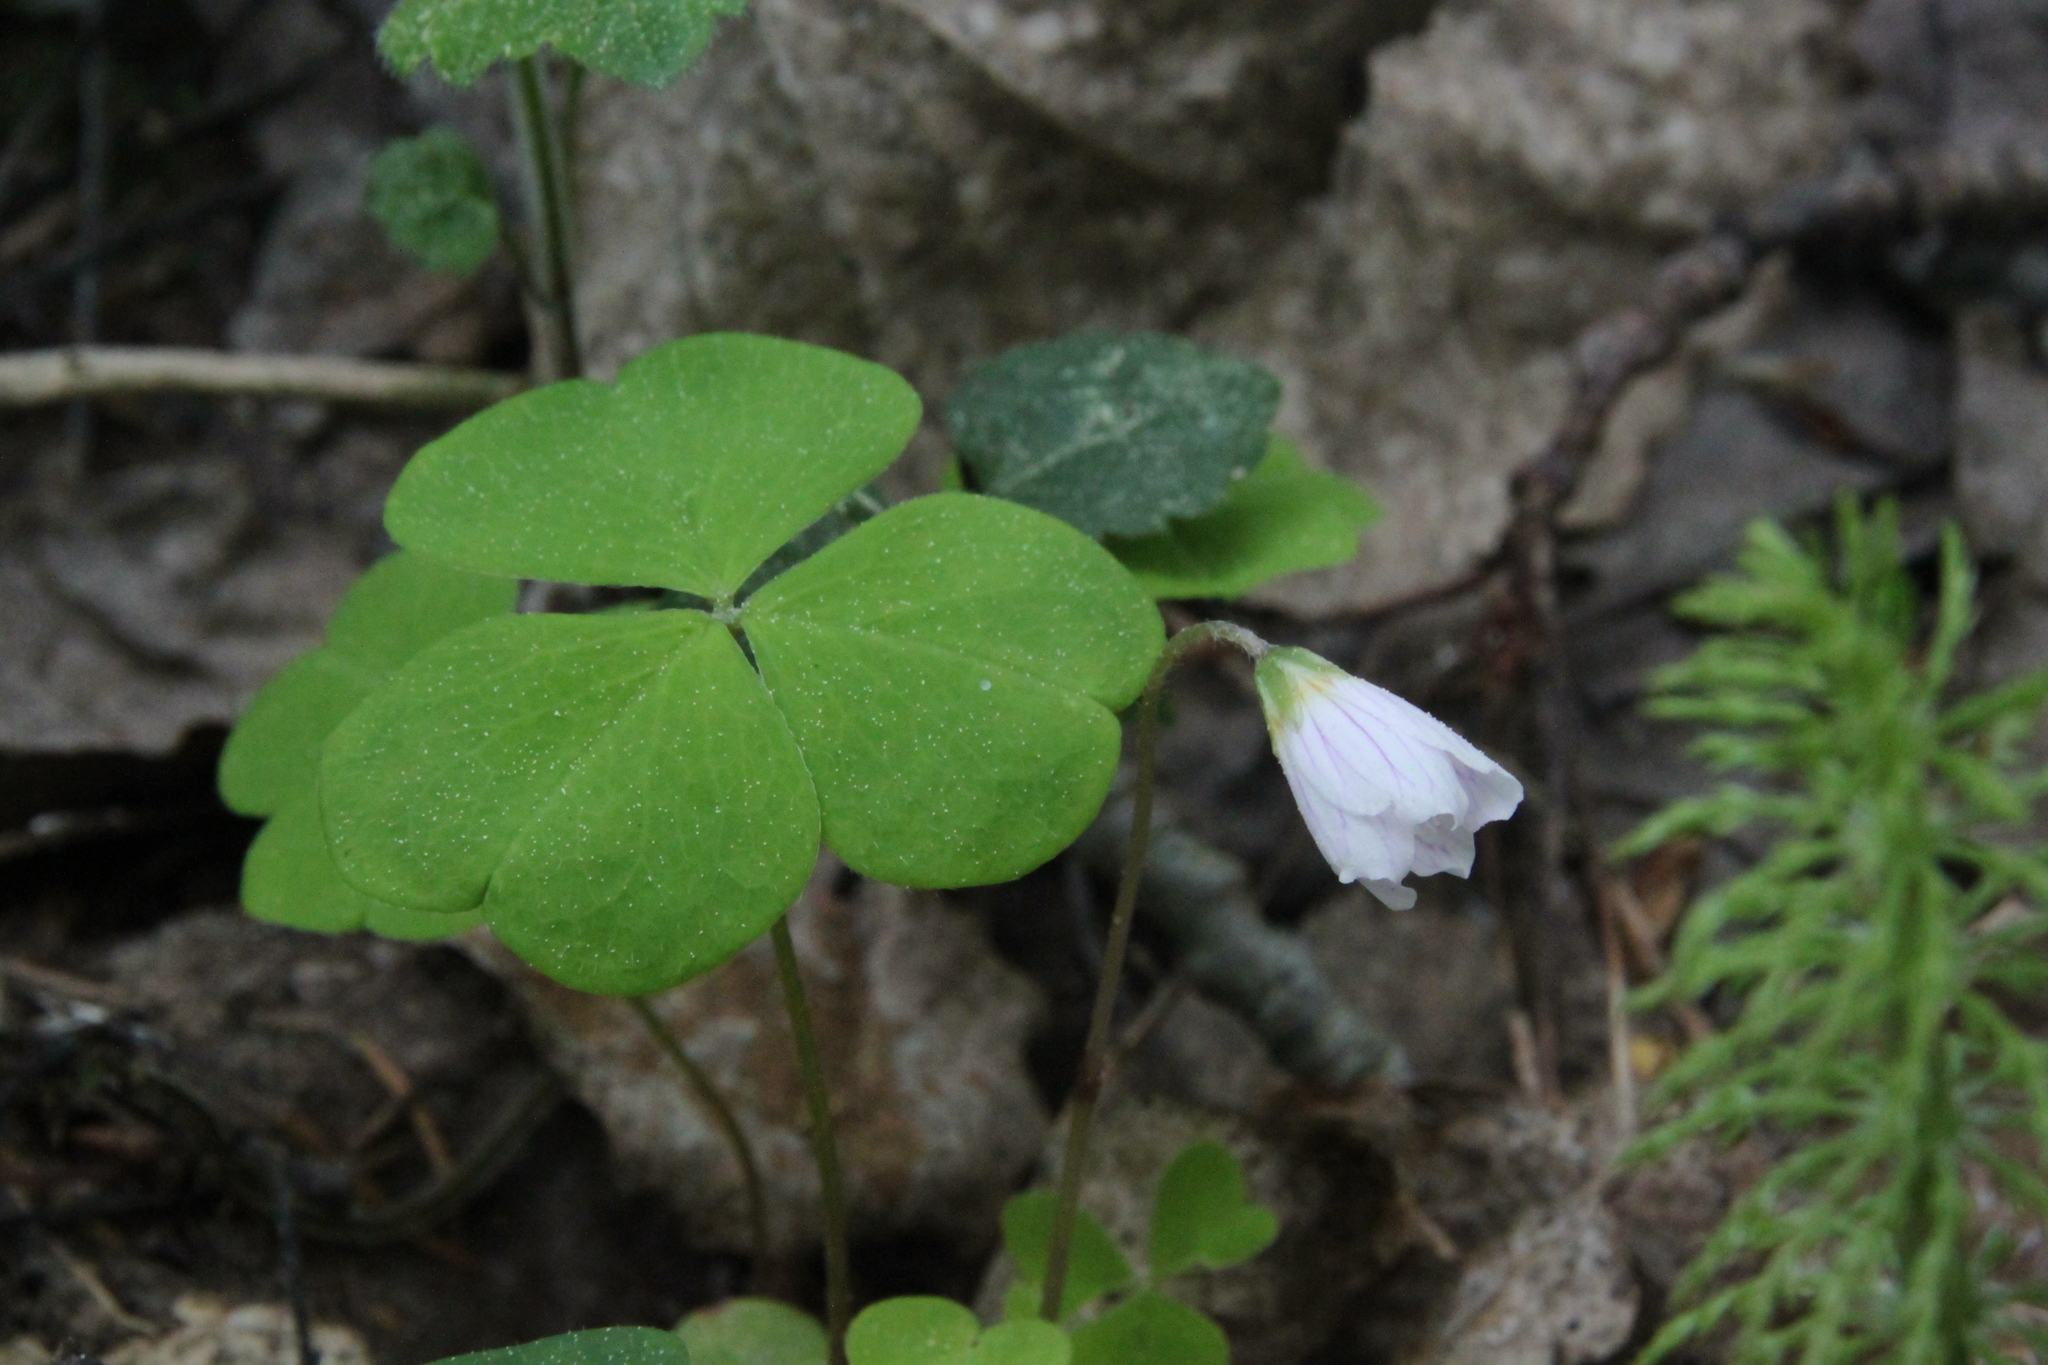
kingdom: Plantae
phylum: Tracheophyta
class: Magnoliopsida
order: Oxalidales
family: Oxalidaceae
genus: Oxalis
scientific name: Oxalis acetosella
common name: Wood-sorrel
